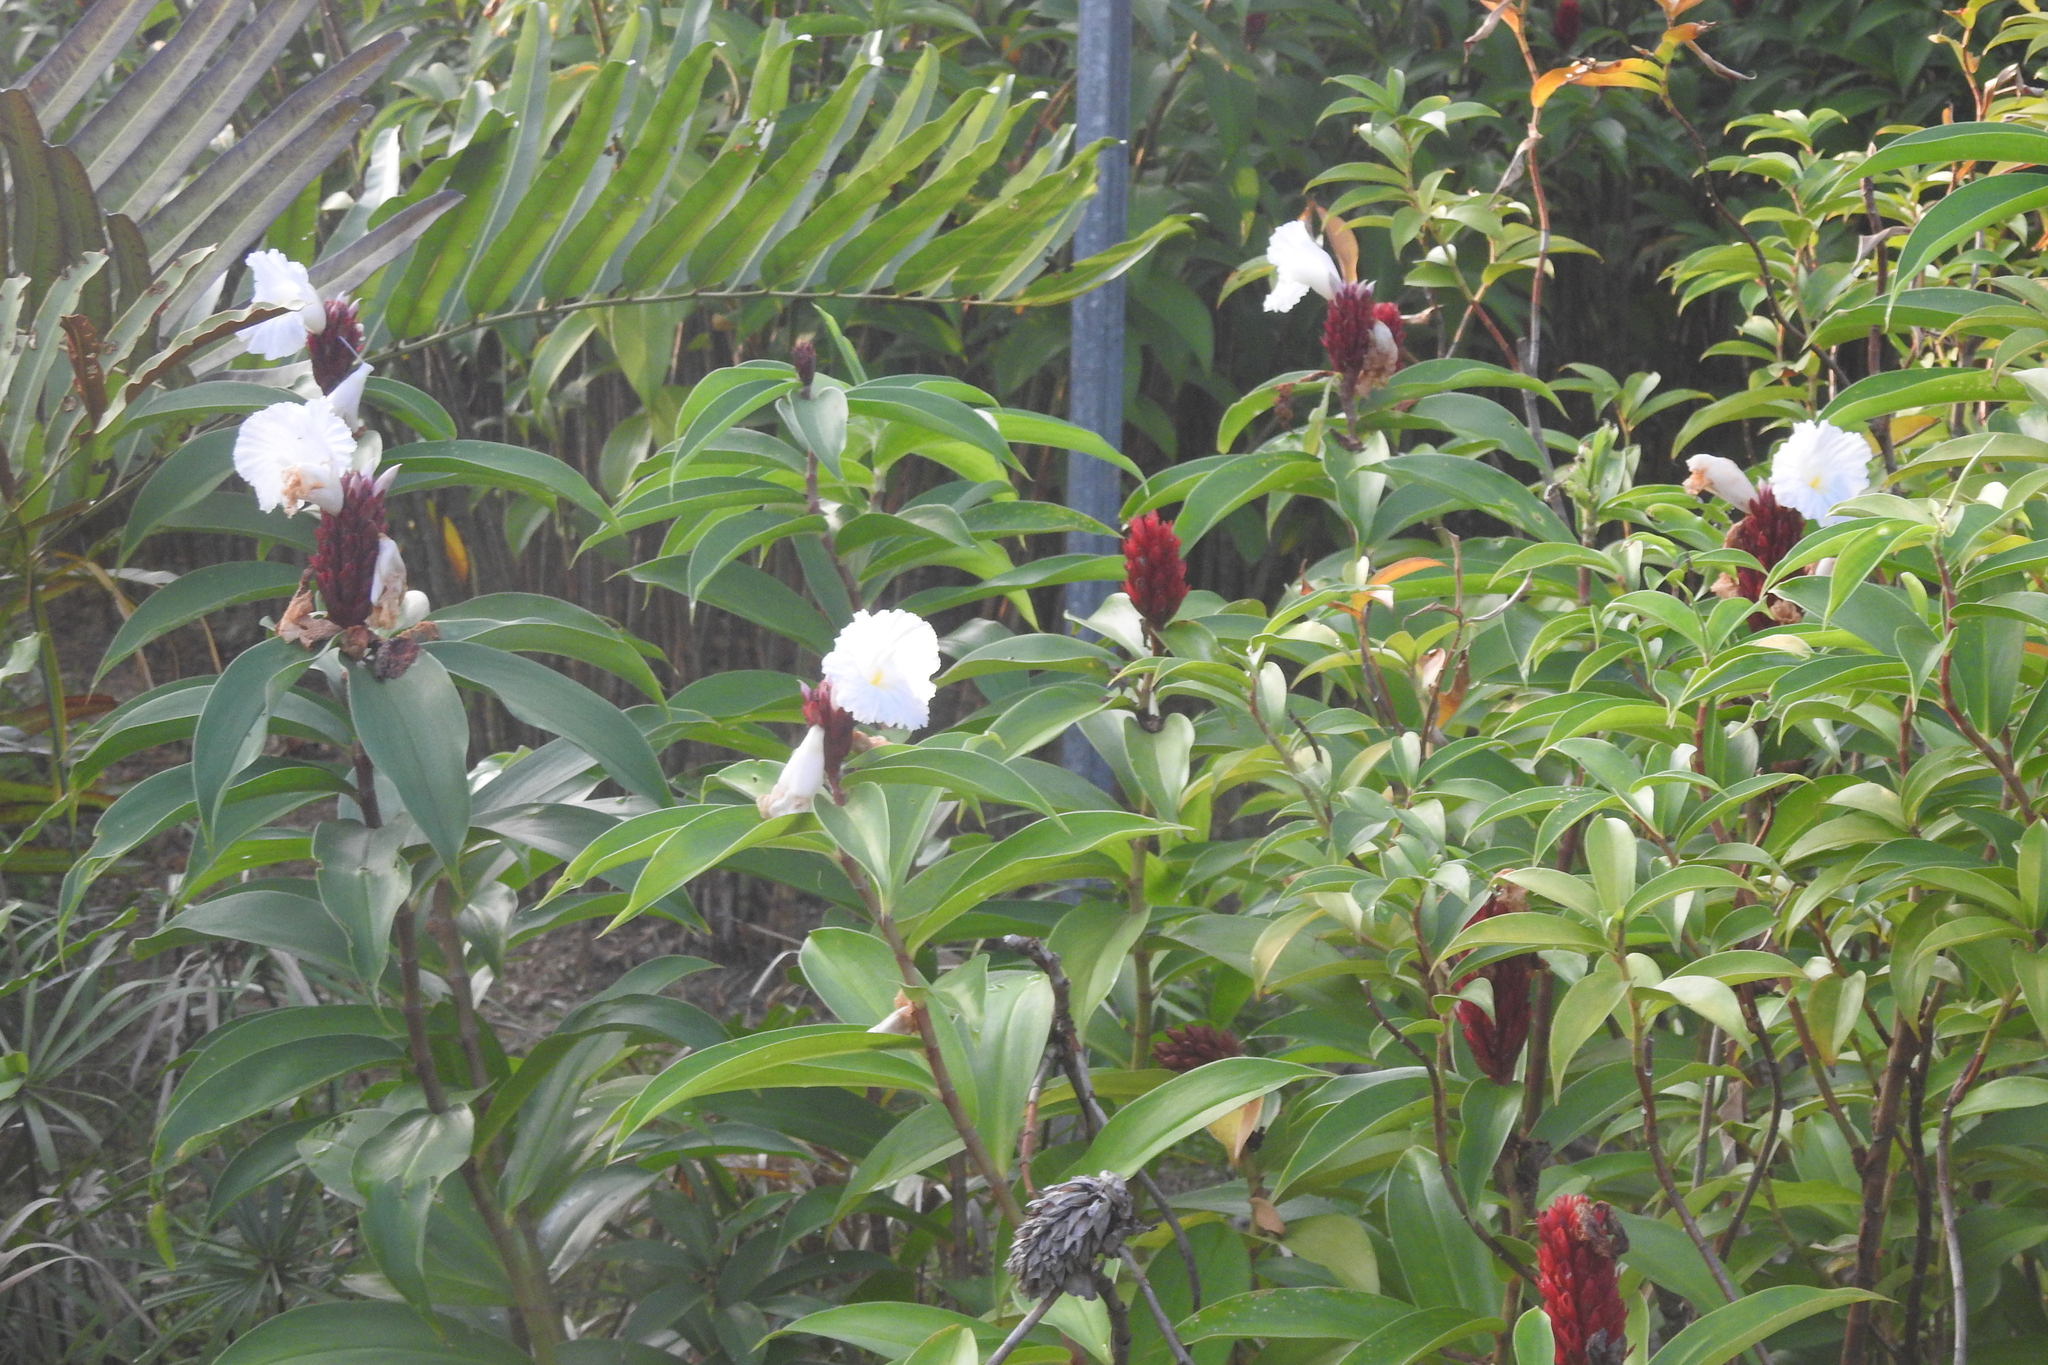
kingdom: Plantae
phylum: Tracheophyta
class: Liliopsida
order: Zingiberales
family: Costaceae
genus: Hellenia
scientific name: Hellenia speciosa
